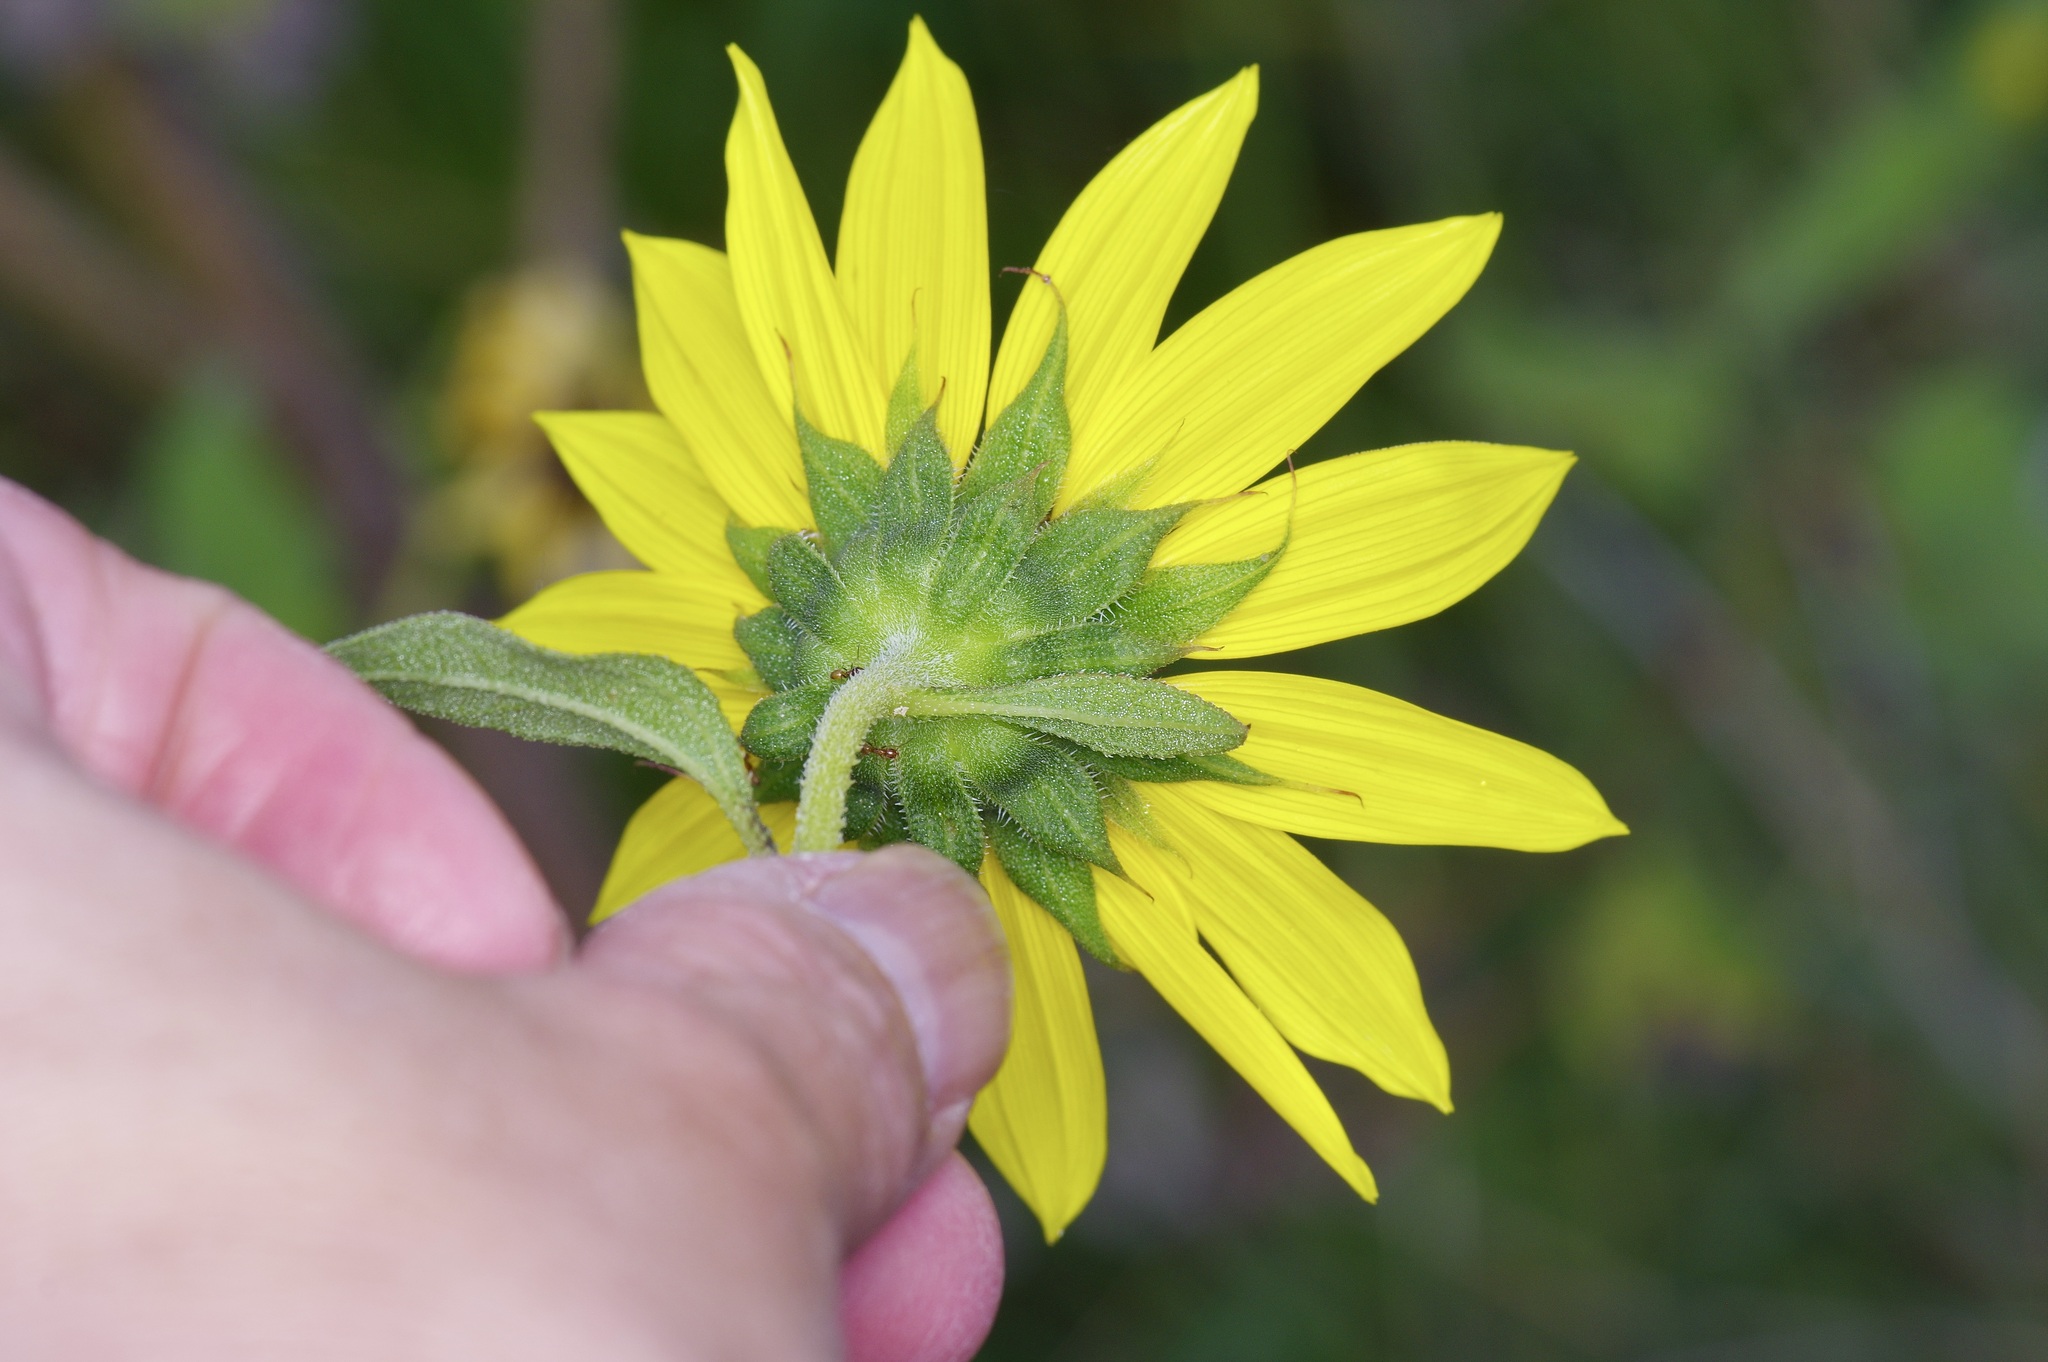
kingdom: Plantae
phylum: Tracheophyta
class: Magnoliopsida
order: Asterales
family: Asteraceae
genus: Helianthus
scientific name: Helianthus annuus
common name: Sunflower
